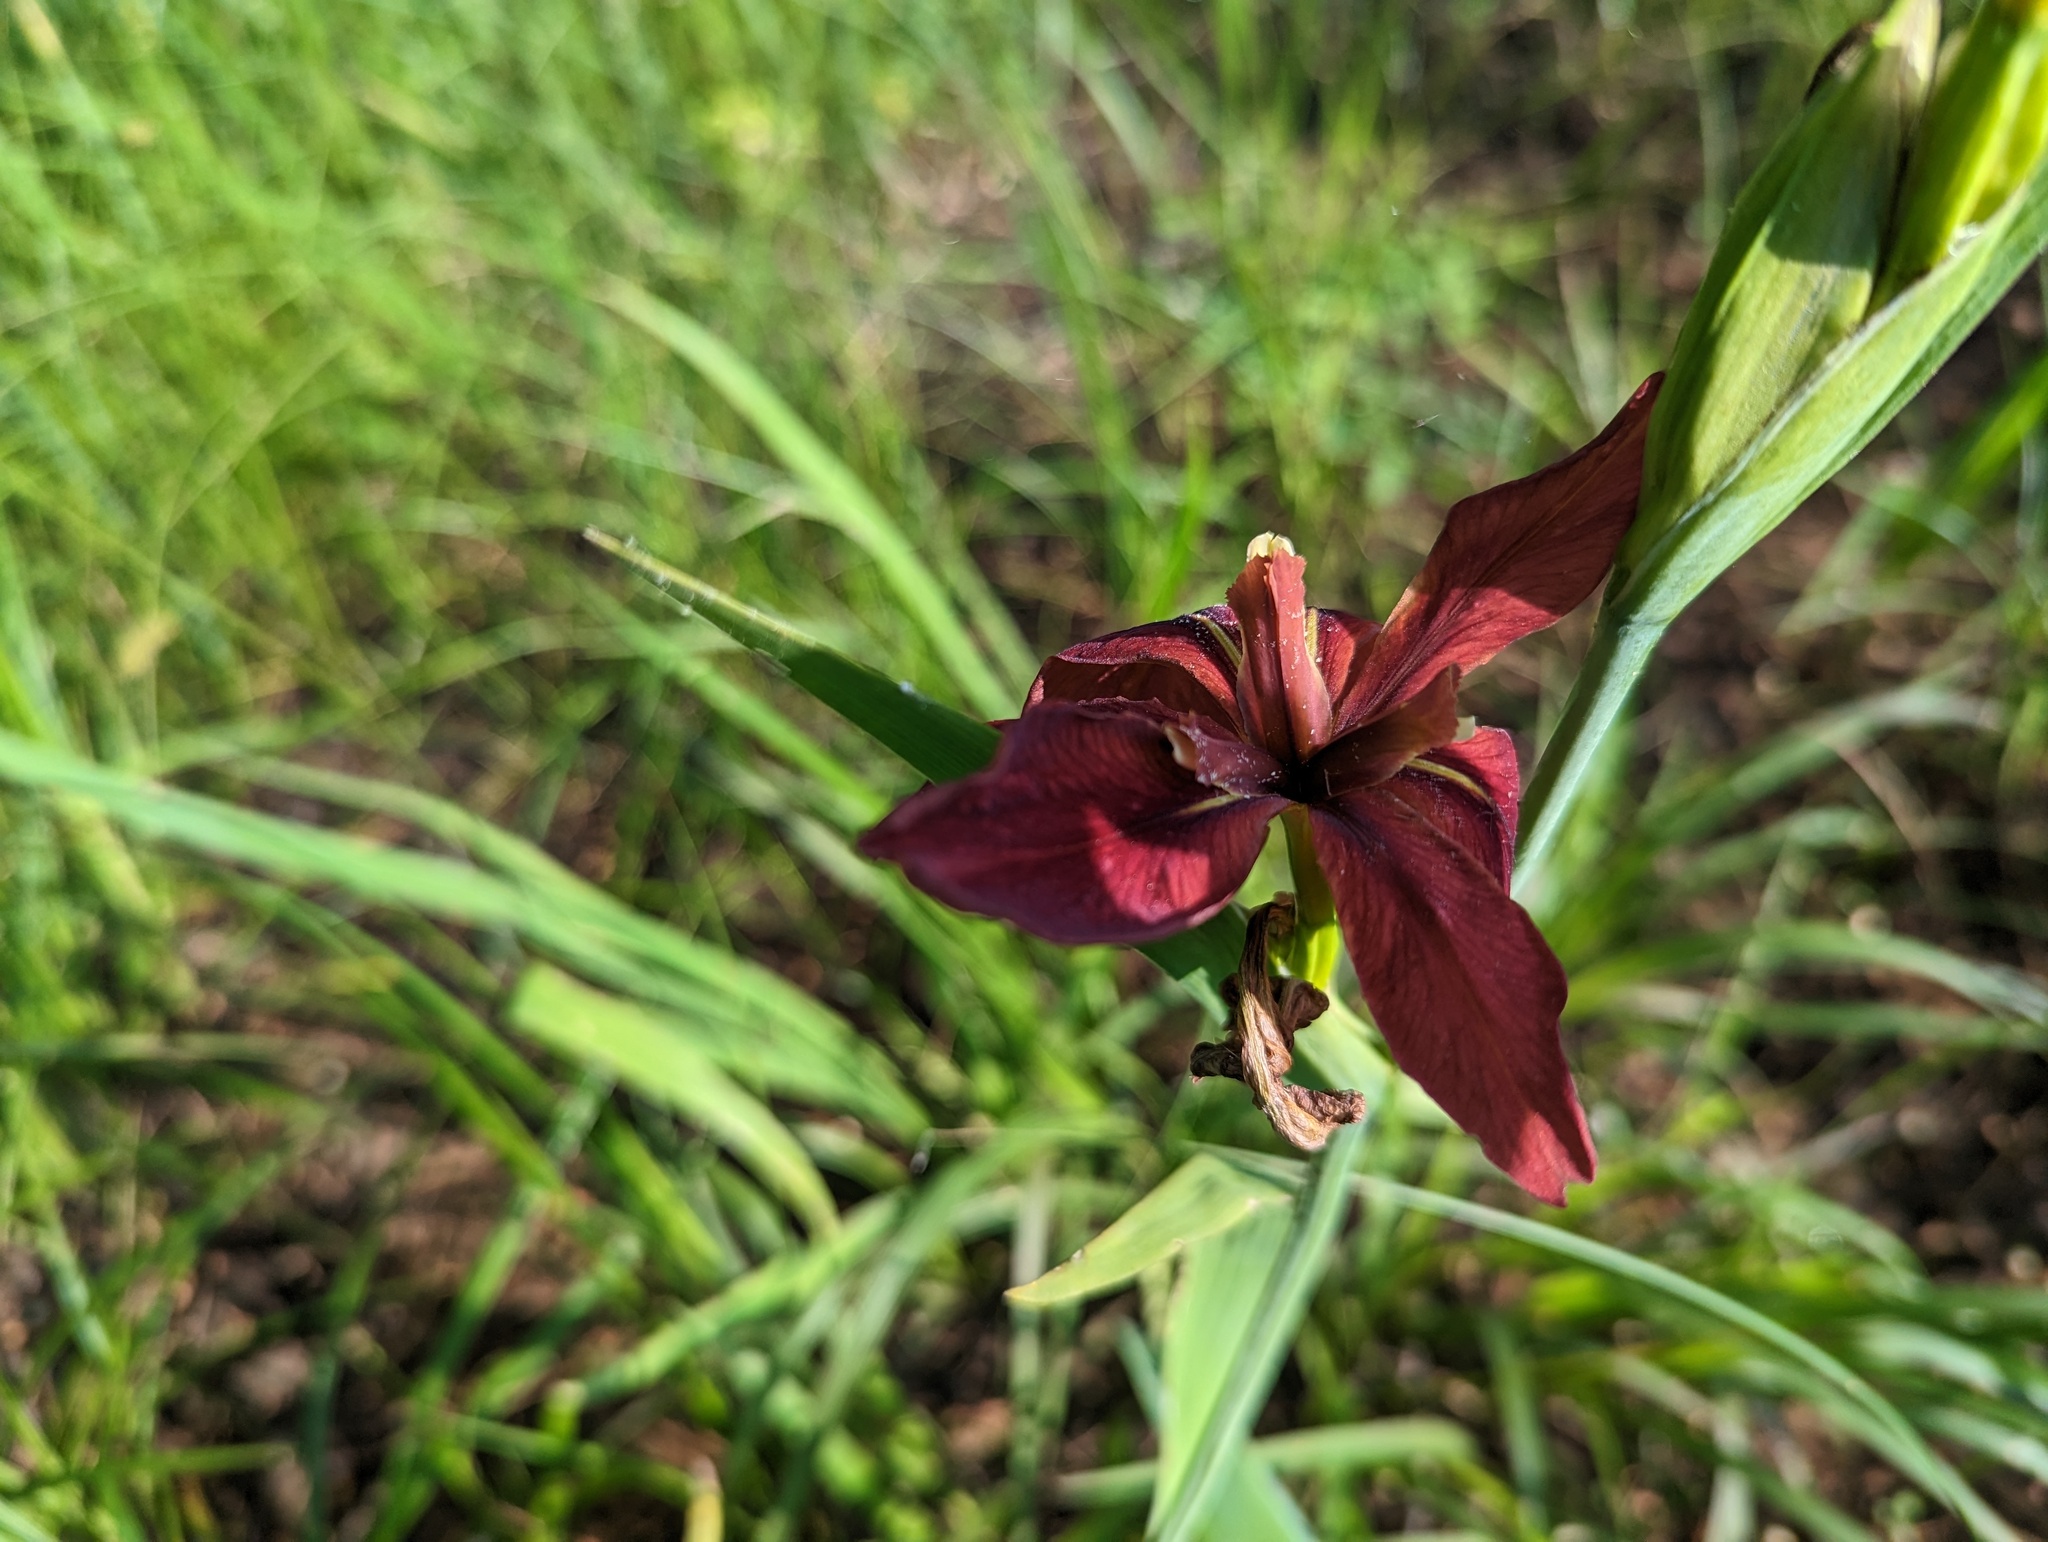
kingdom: Plantae
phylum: Tracheophyta
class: Liliopsida
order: Asparagales
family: Iridaceae
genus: Iris
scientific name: Iris fulva
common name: Copper iris
